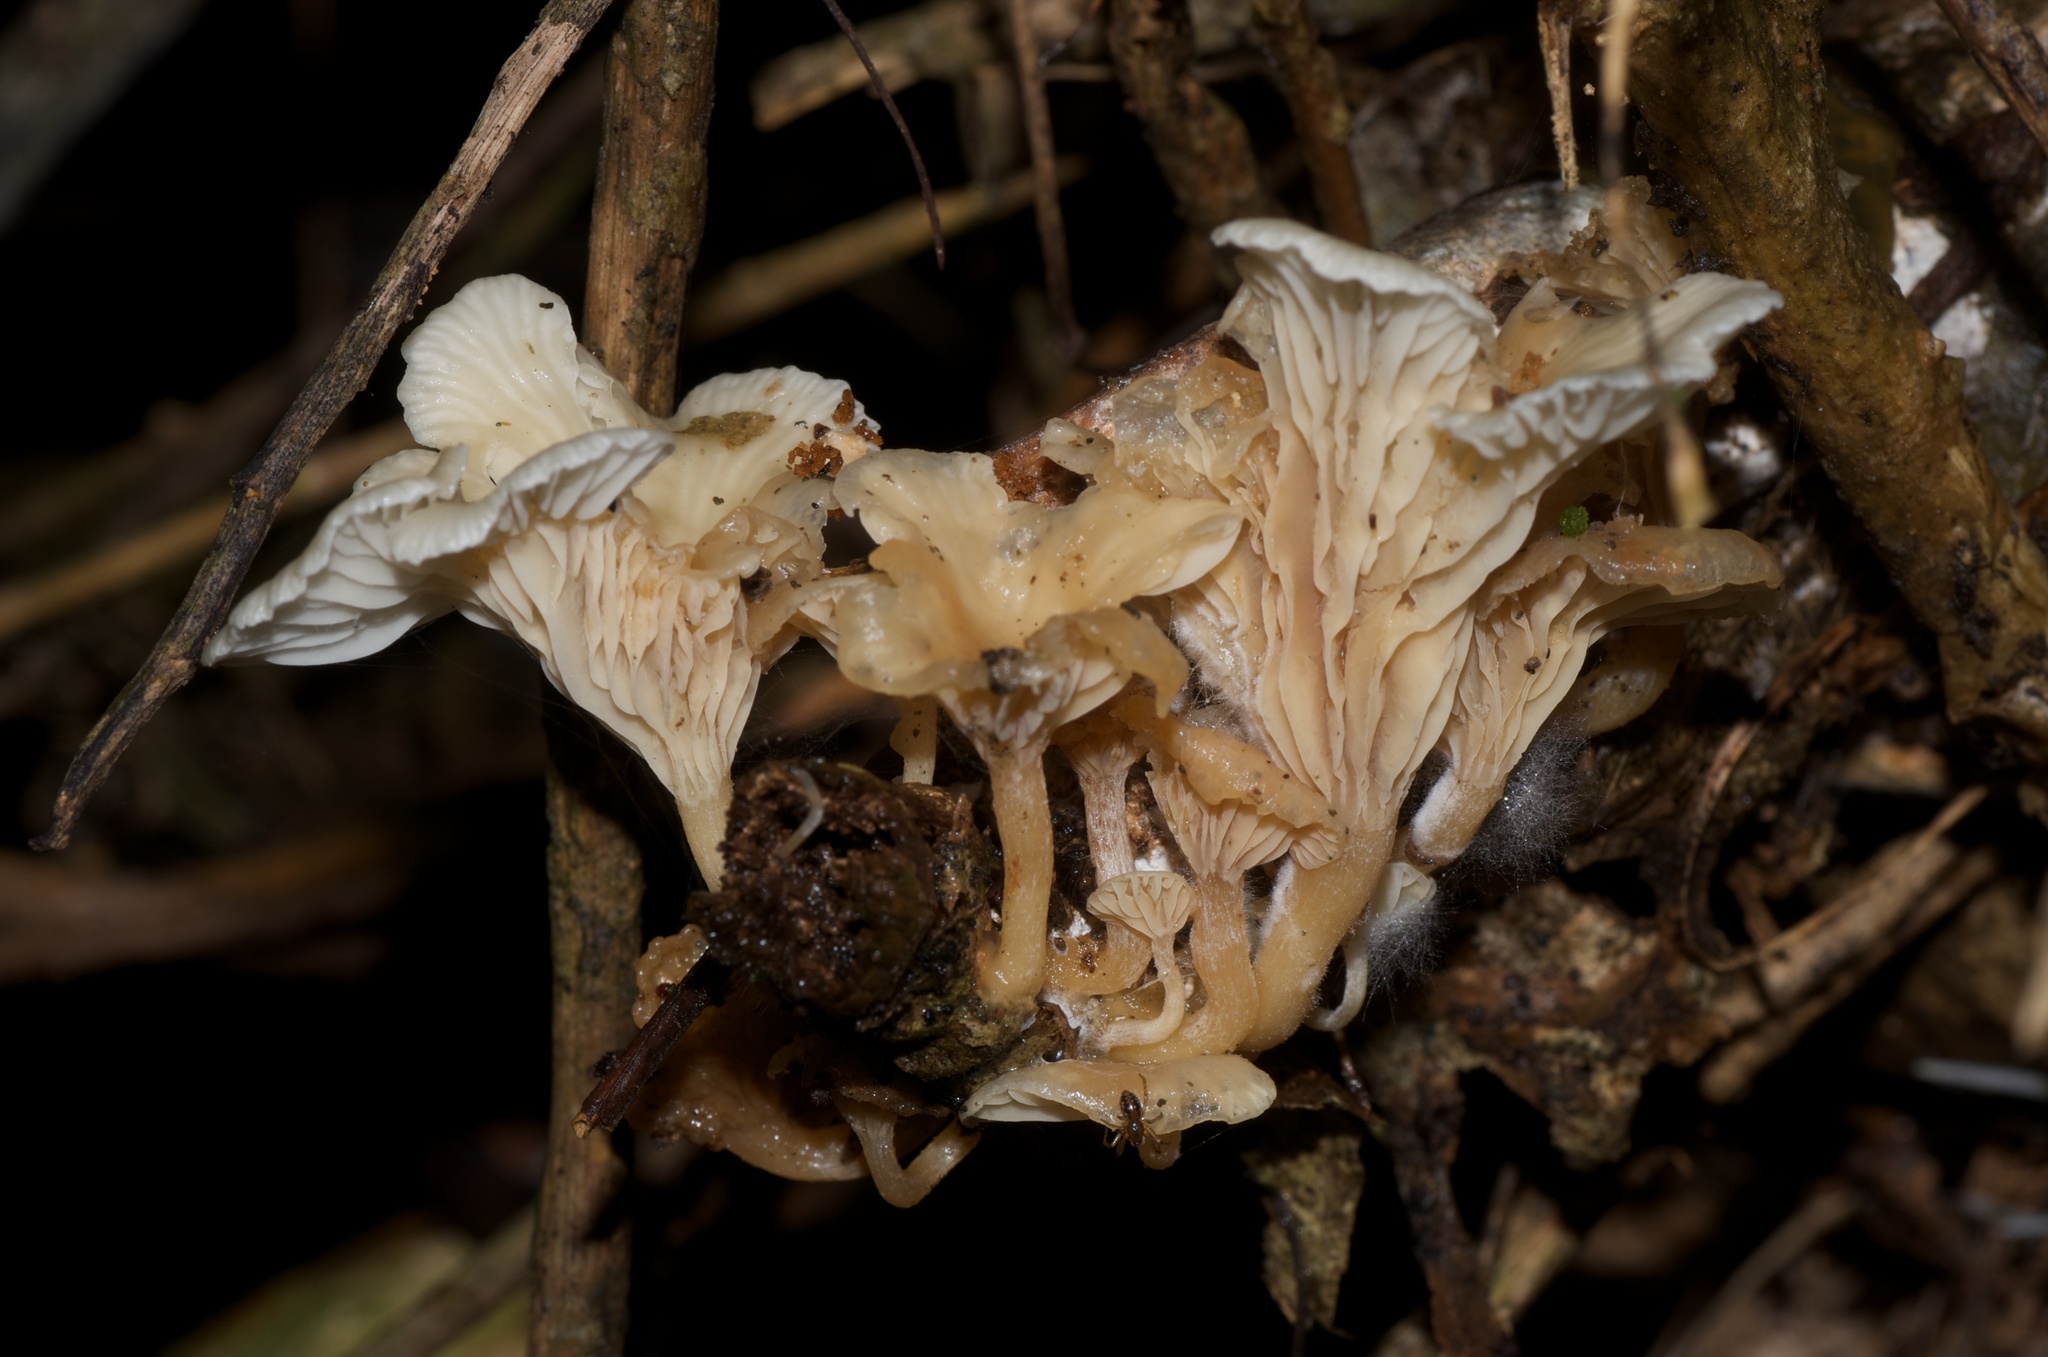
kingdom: Fungi
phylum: Basidiomycota
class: Agaricomycetes
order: Agaricales
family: Callistosporiaceae
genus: Pleurocollybia
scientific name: Pleurocollybia cremea
